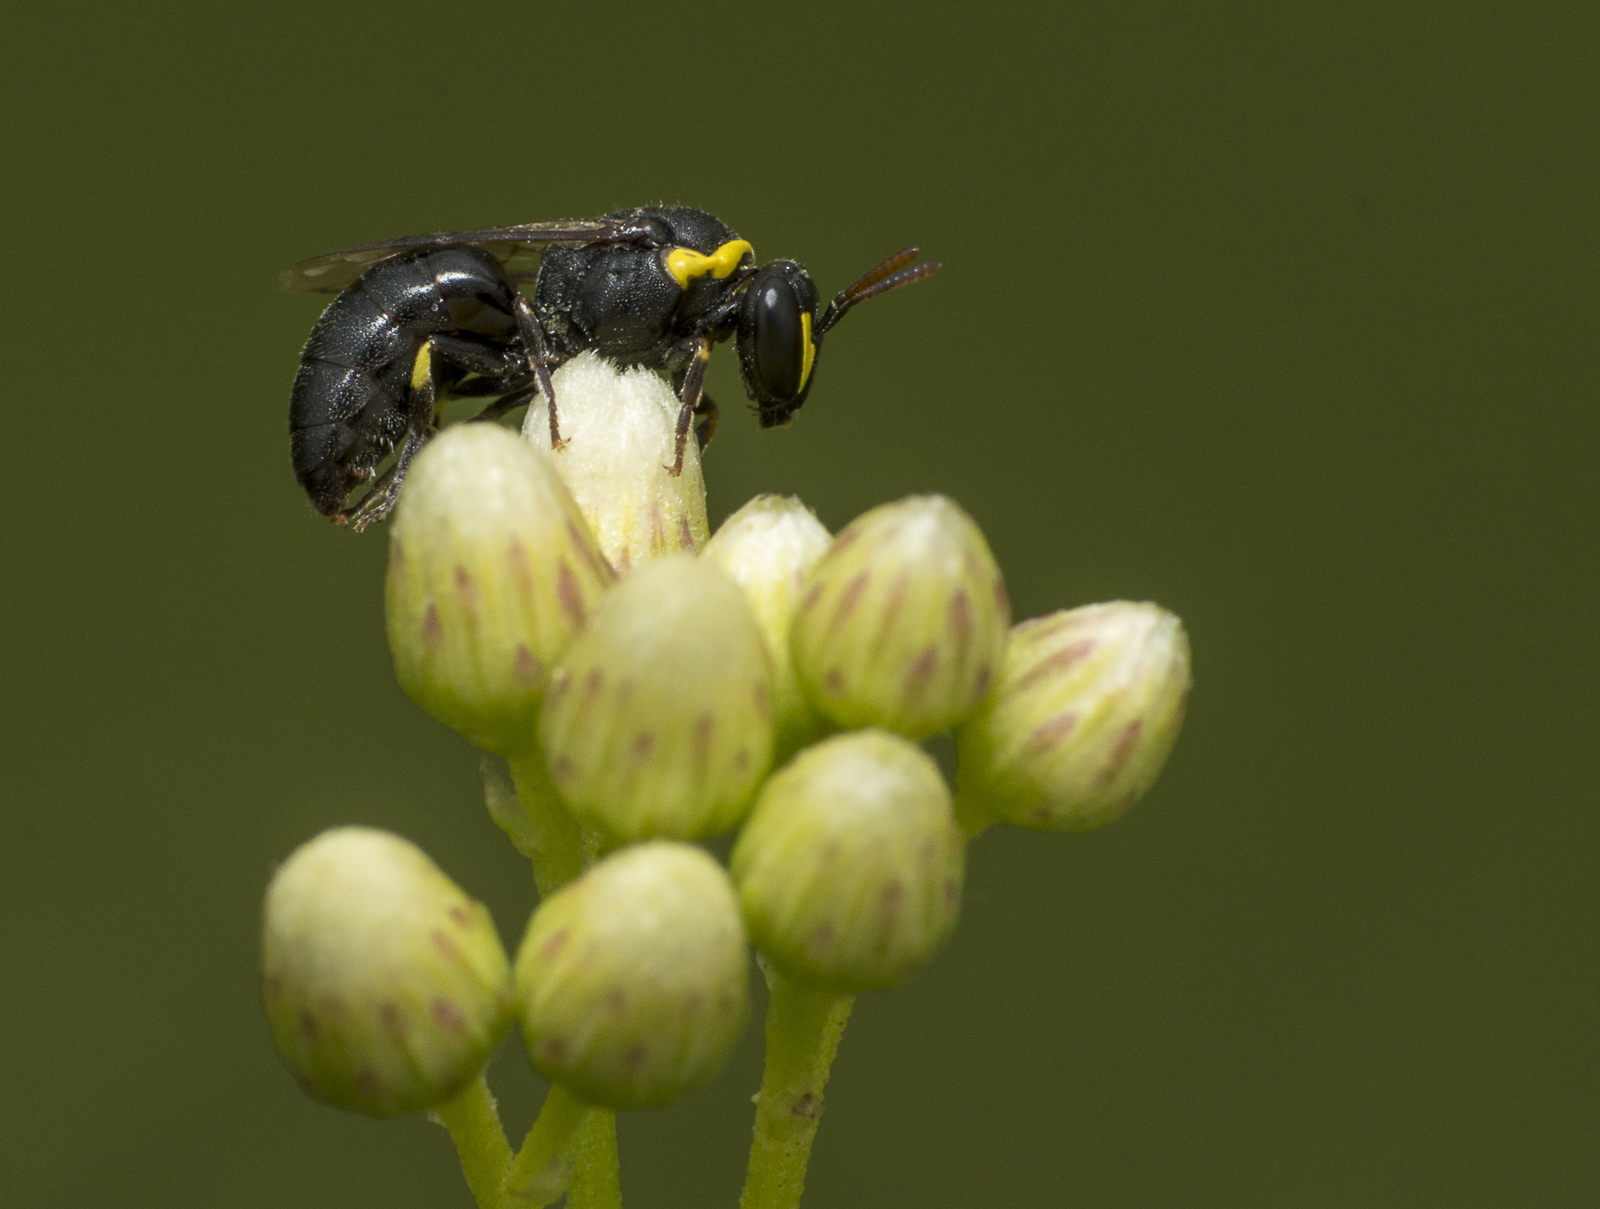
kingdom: Animalia
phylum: Arthropoda
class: Insecta
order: Hymenoptera
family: Colletidae
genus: Hylaeus
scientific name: Hylaeus euxanthus
